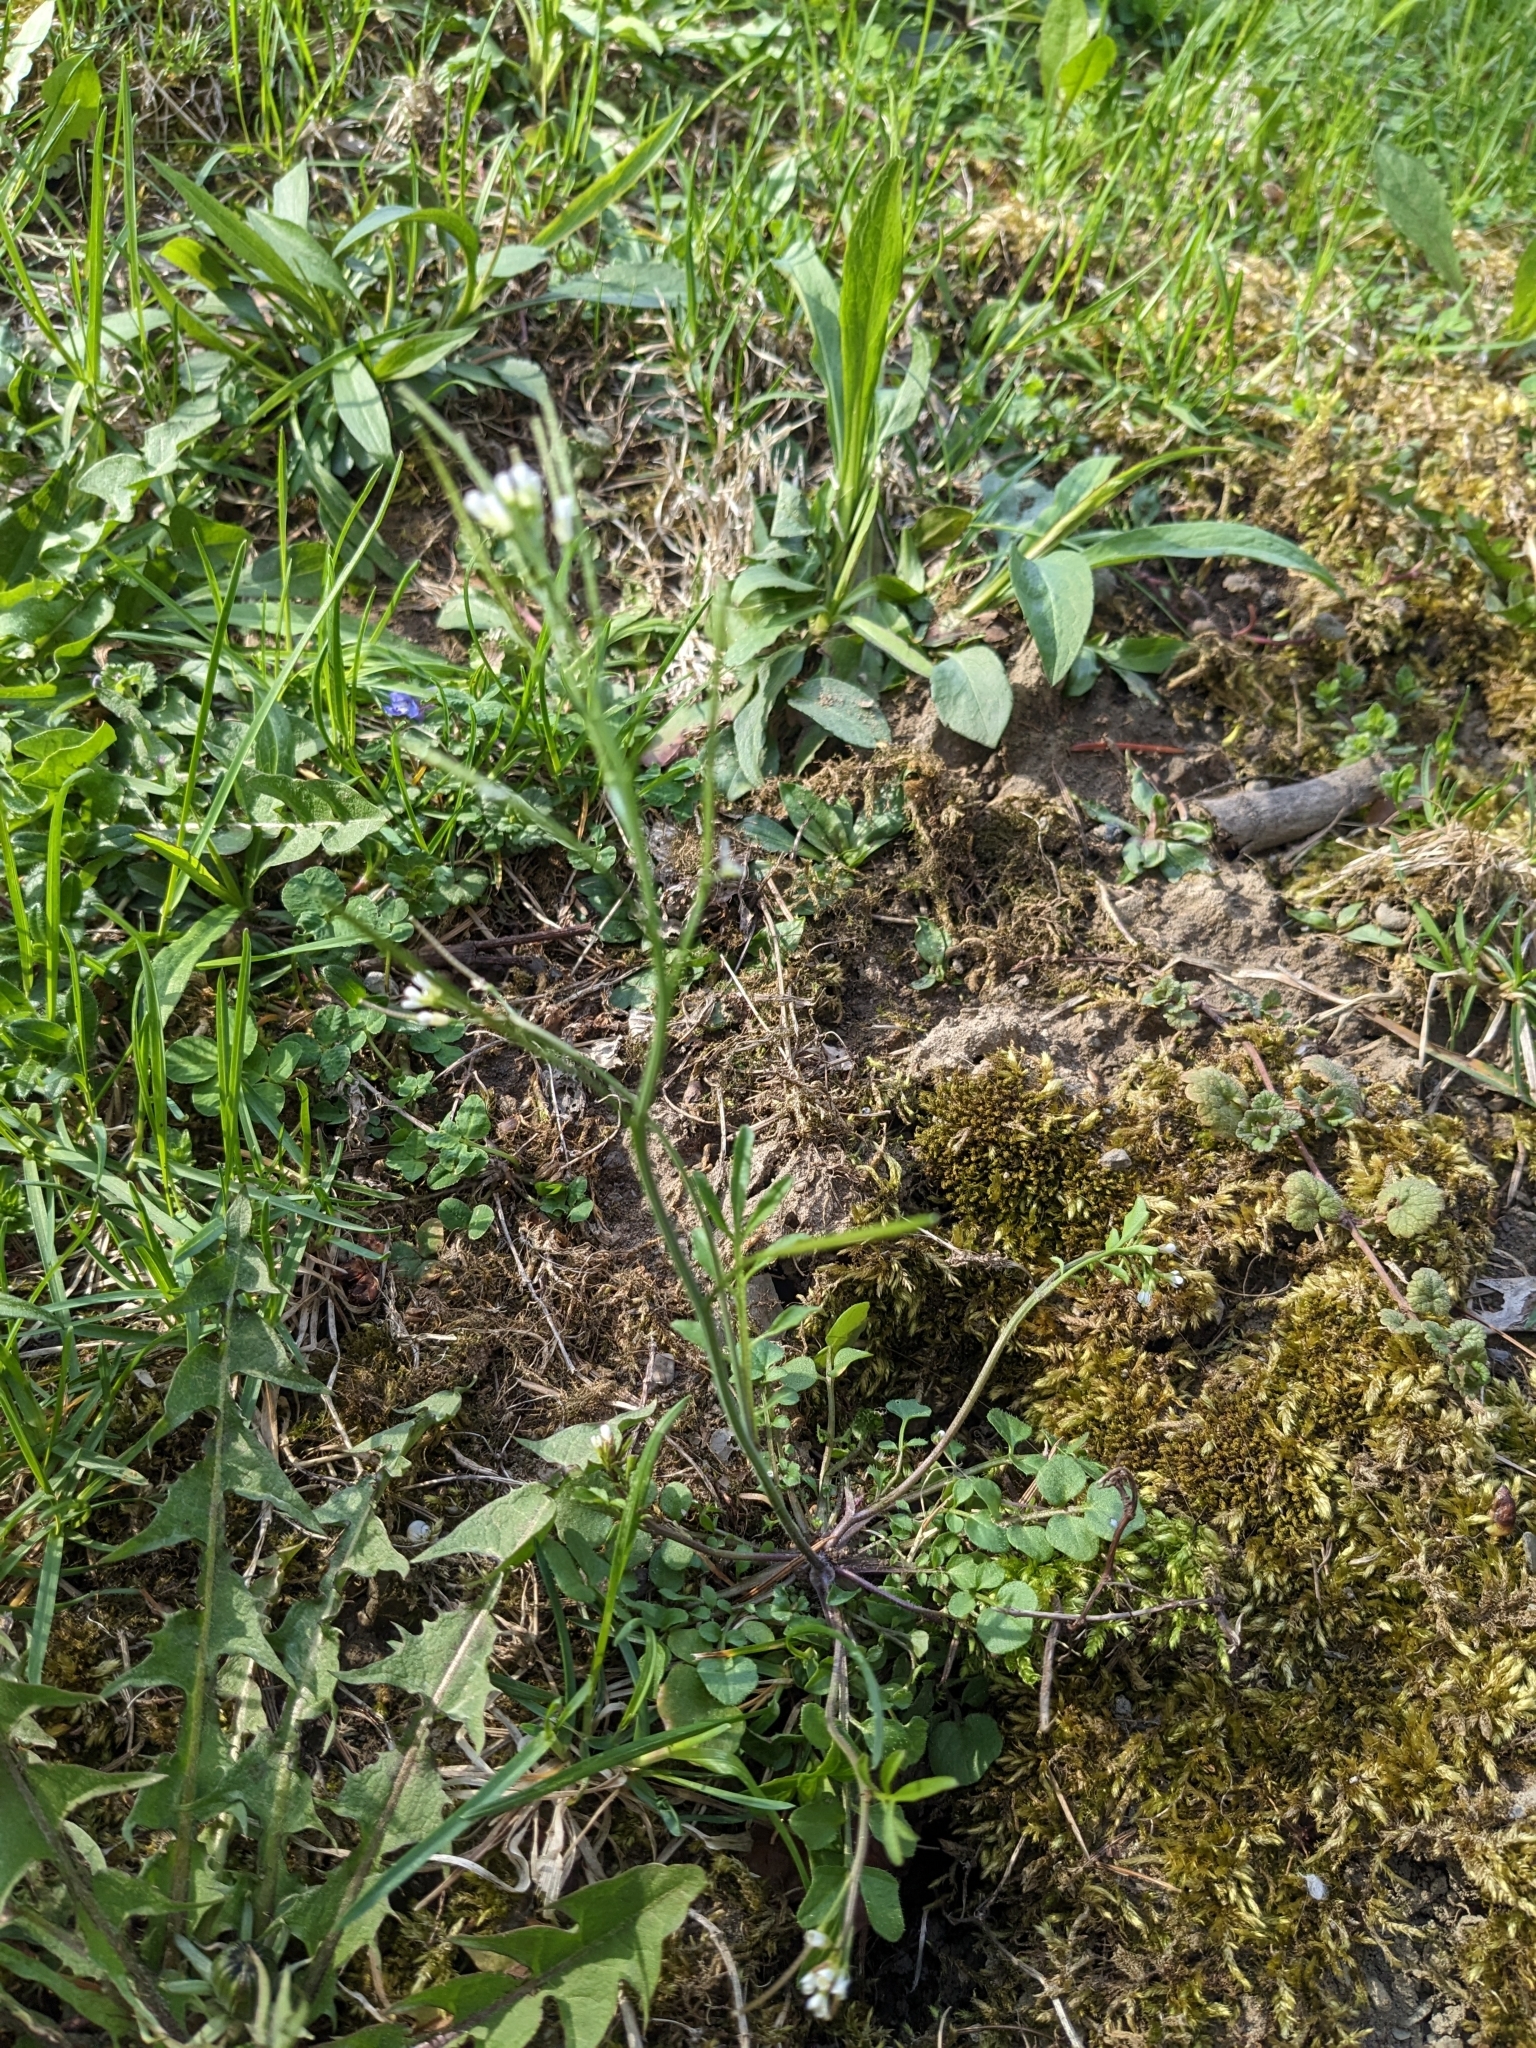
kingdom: Plantae
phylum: Tracheophyta
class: Magnoliopsida
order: Brassicales
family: Brassicaceae
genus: Cardamine
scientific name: Cardamine hirsuta
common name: Hairy bittercress
